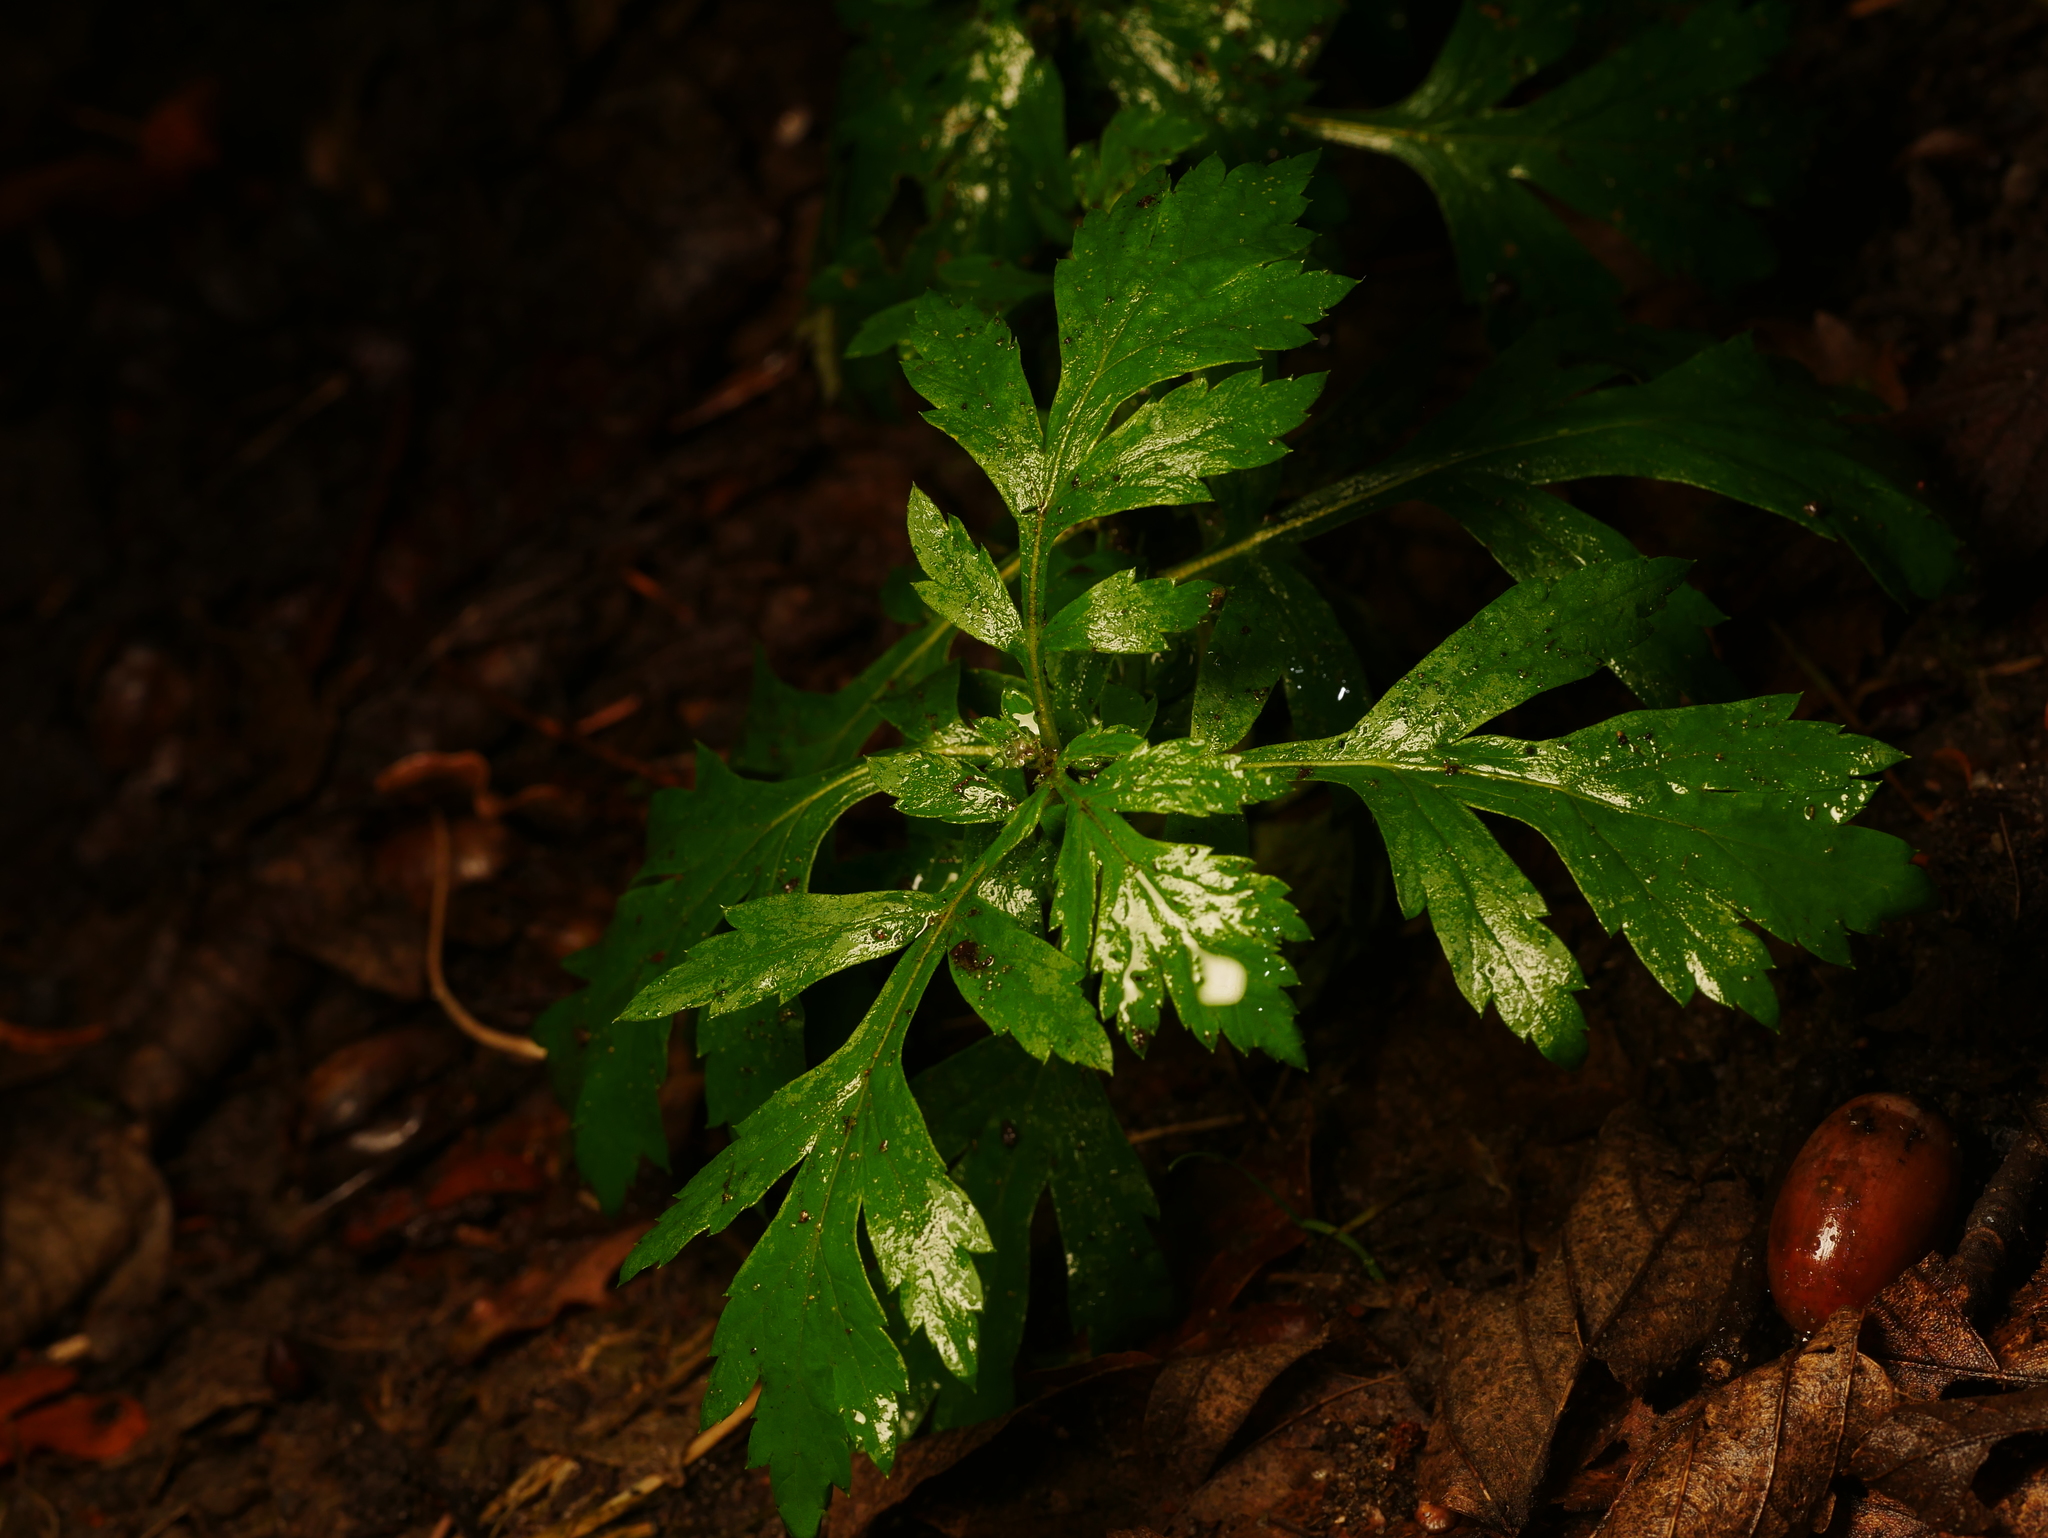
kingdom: Plantae
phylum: Tracheophyta
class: Magnoliopsida
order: Asterales
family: Asteraceae
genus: Artemisia
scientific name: Artemisia vulgaris
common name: Mugwort
